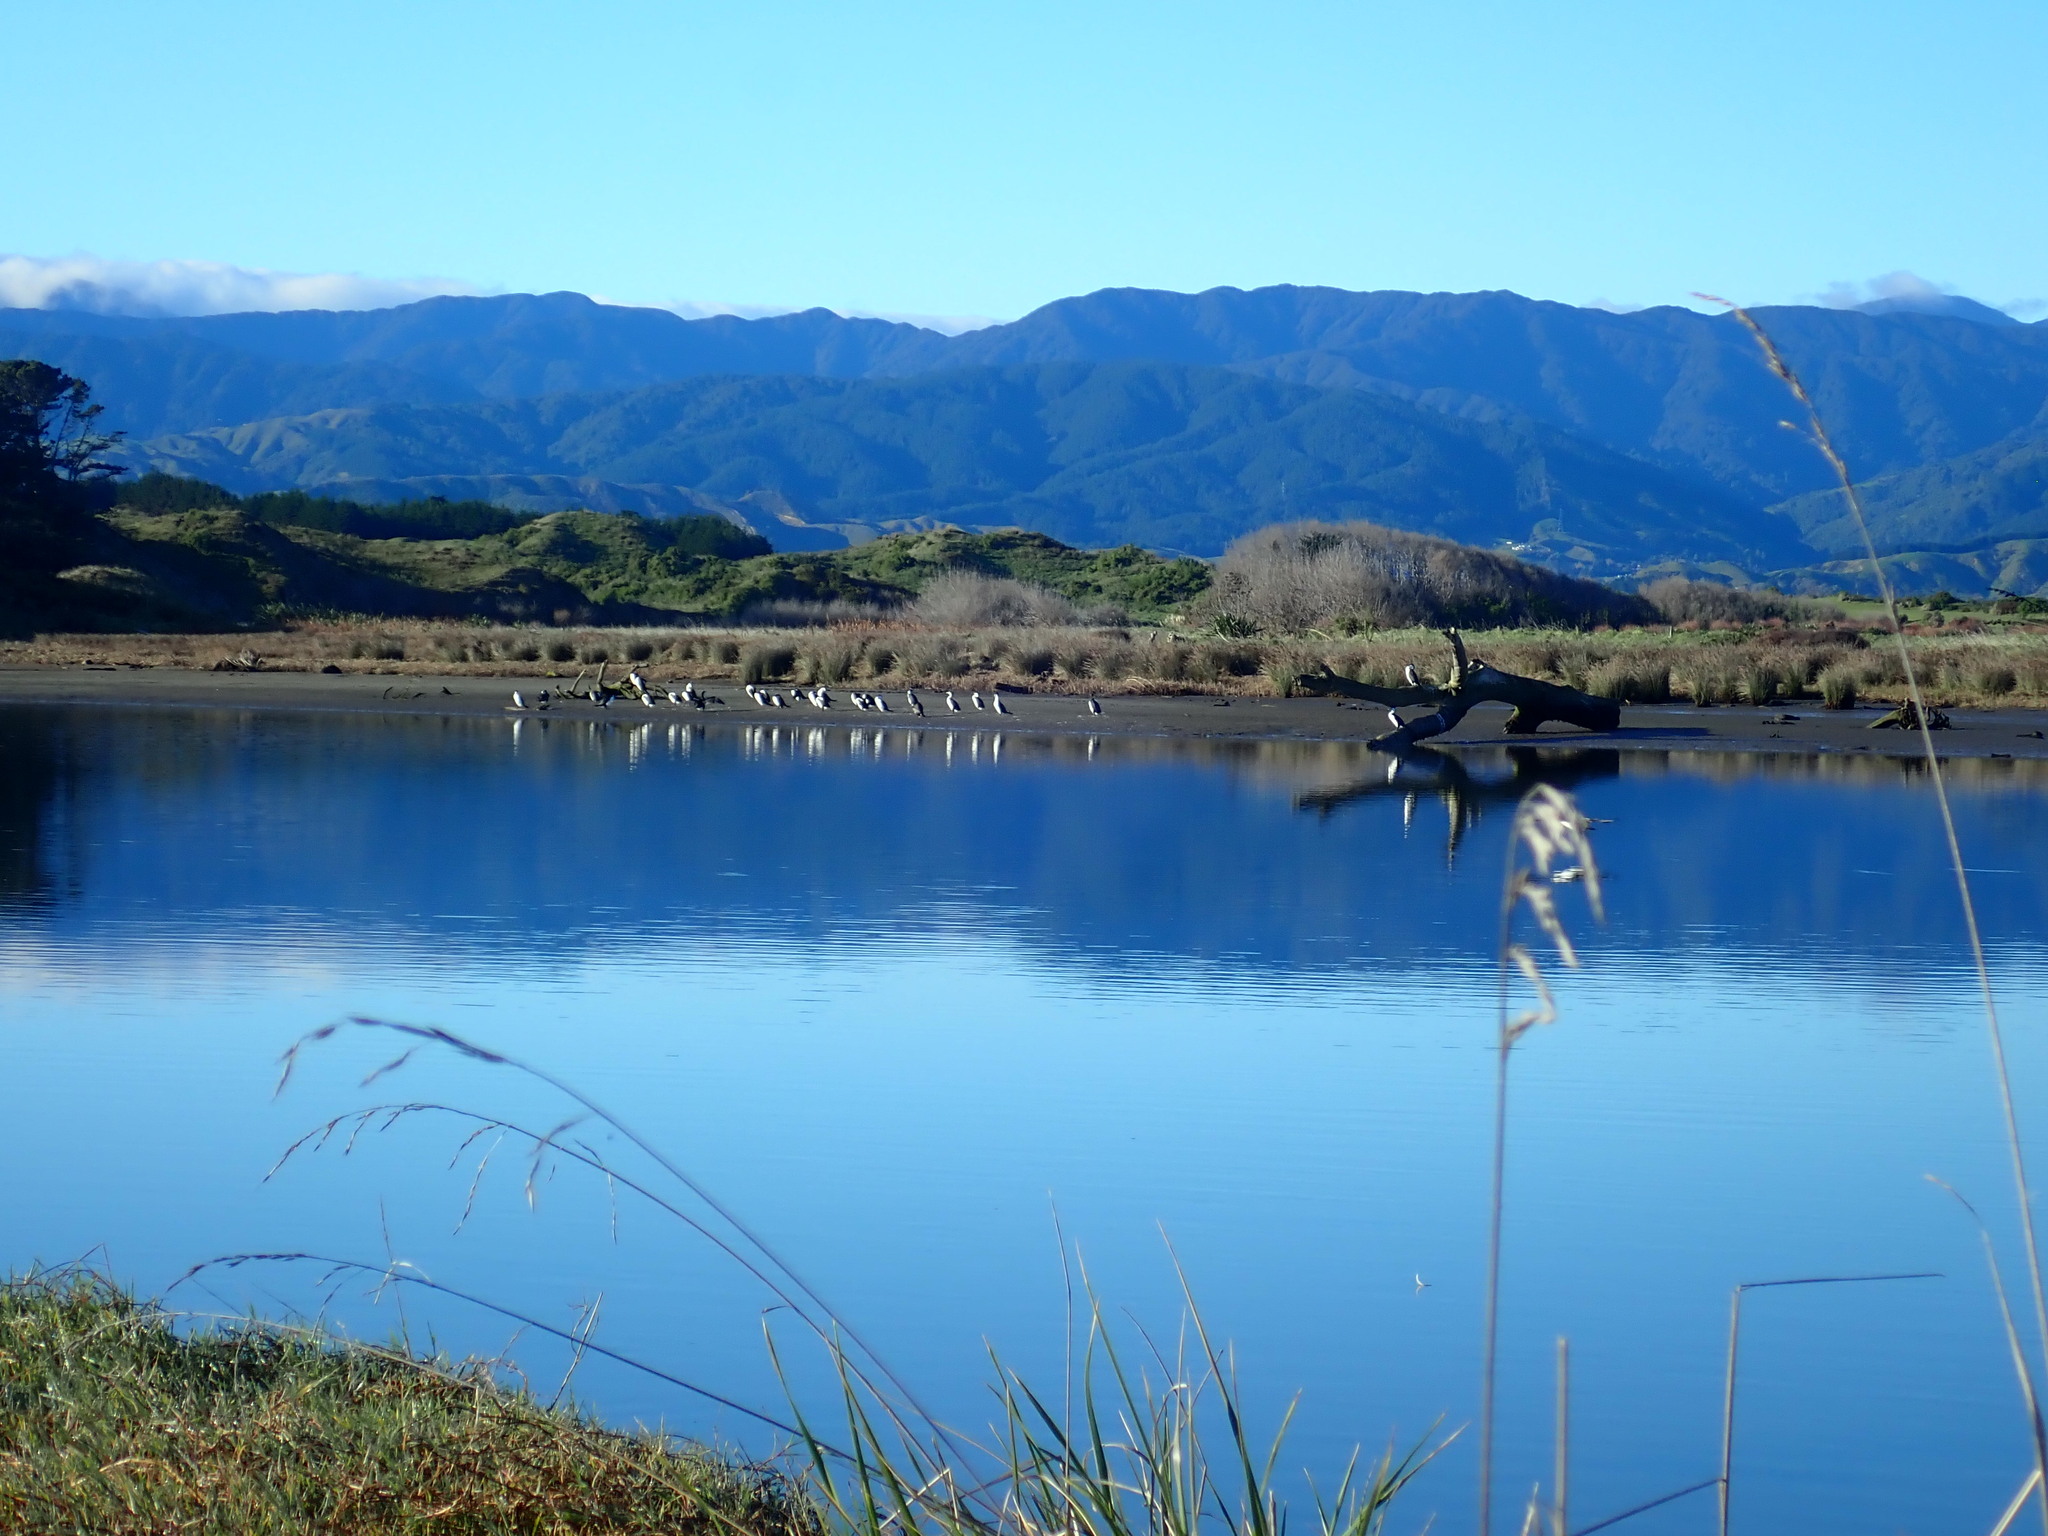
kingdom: Animalia
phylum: Chordata
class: Aves
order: Suliformes
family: Phalacrocoracidae
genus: Phalacrocorax
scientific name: Phalacrocorax varius
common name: Pied cormorant
